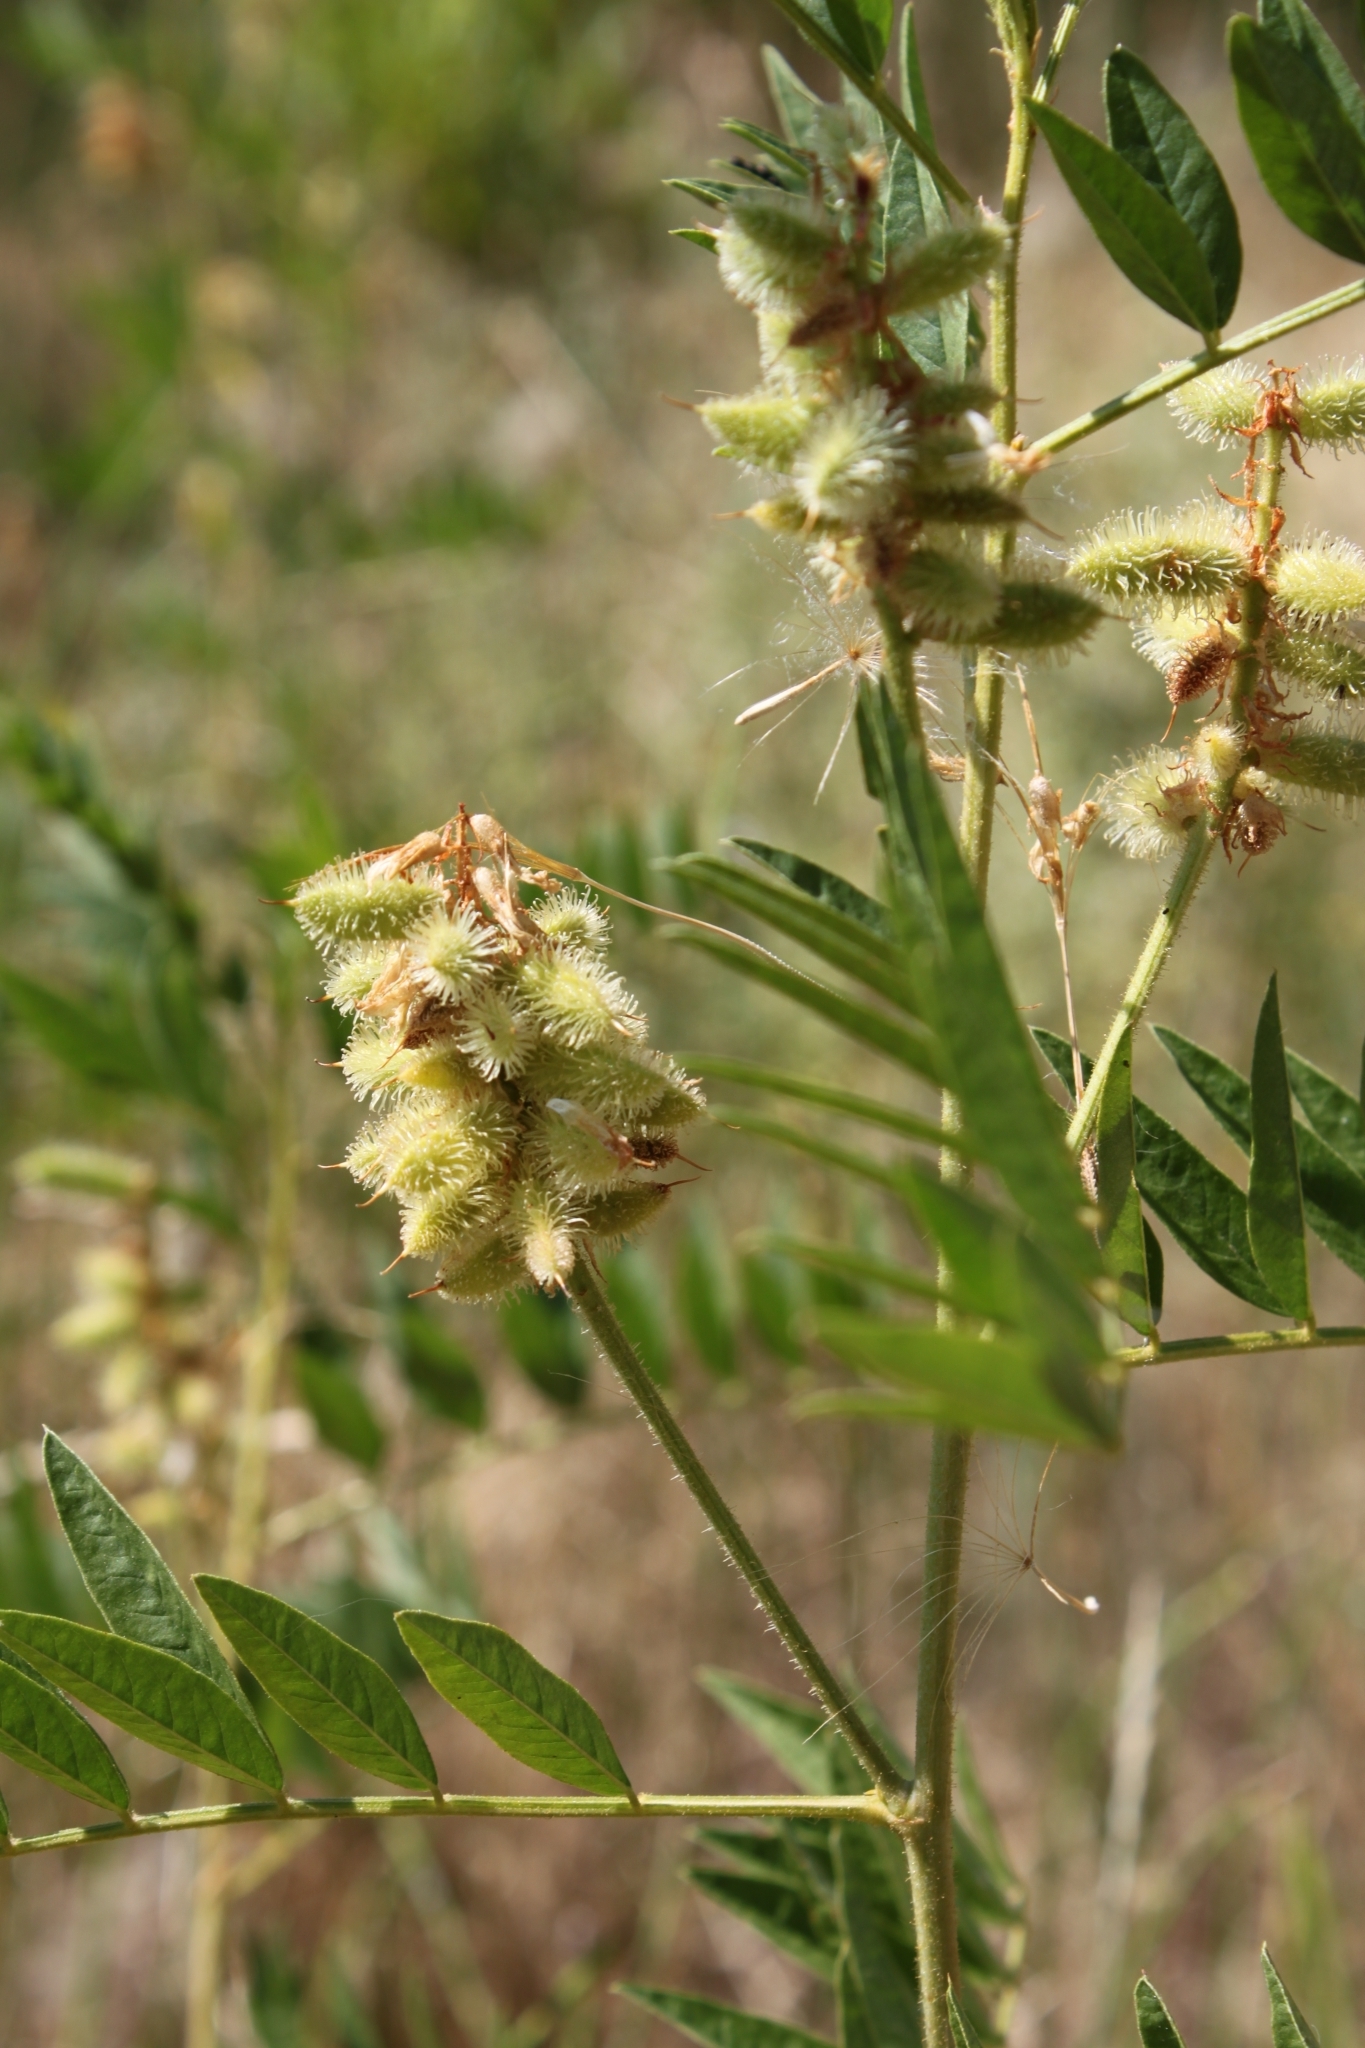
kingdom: Plantae
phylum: Tracheophyta
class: Magnoliopsida
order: Fabales
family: Fabaceae
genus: Glycyrrhiza
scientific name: Glycyrrhiza lepidota
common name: American liquorice
